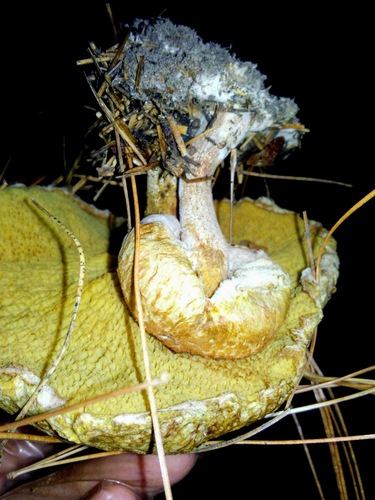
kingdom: Fungi
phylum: Basidiomycota
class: Agaricomycetes
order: Boletales
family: Suillaceae
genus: Suillus
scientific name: Suillus americanus
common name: Chicken fat mushroom
